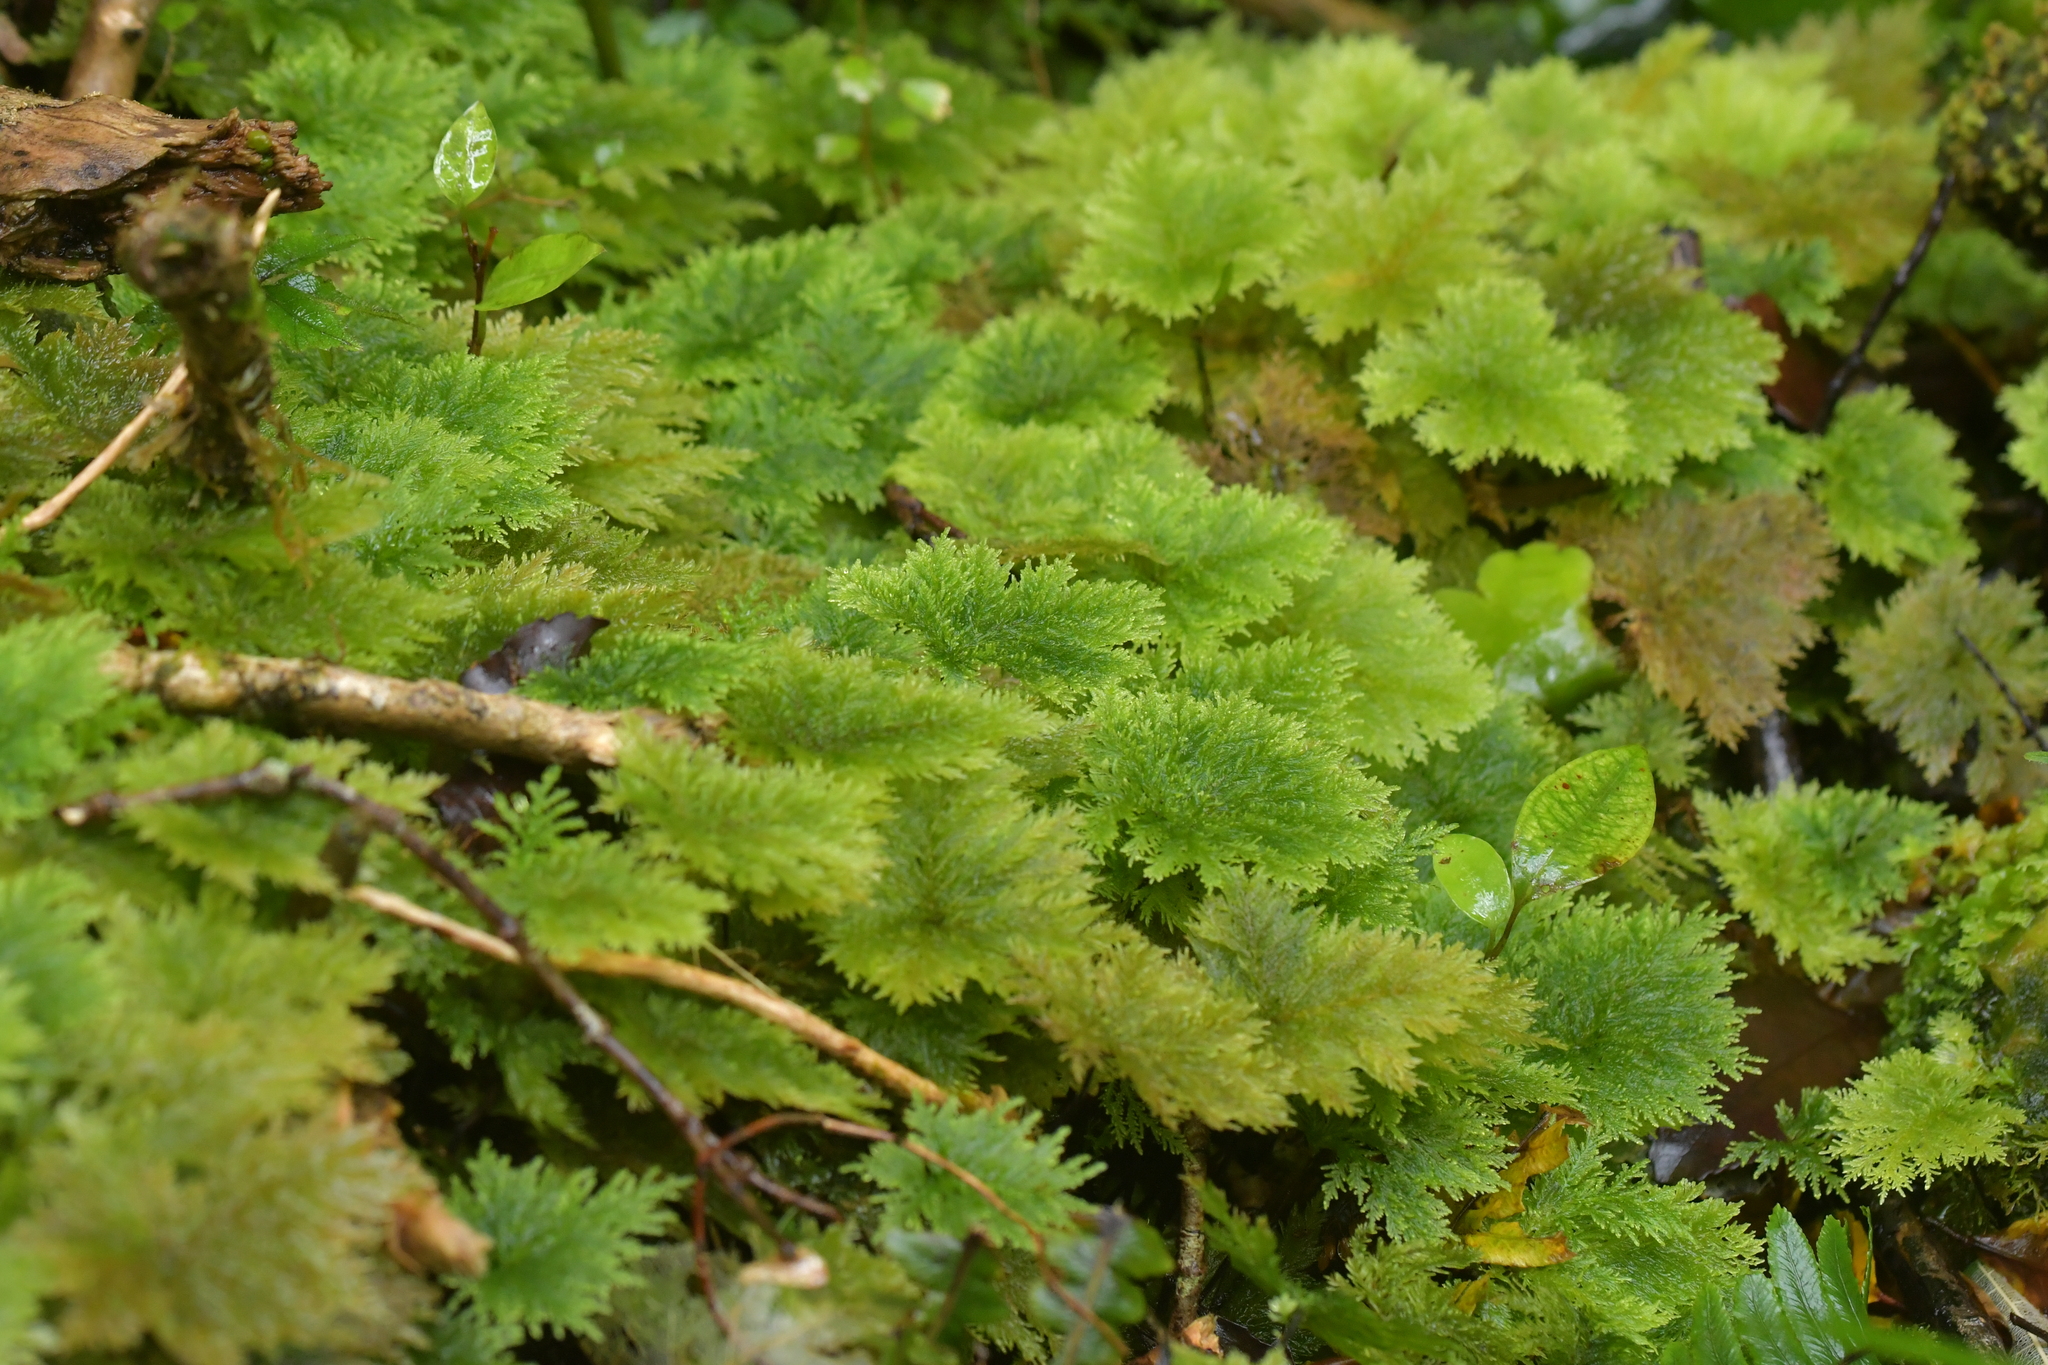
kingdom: Plantae
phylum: Bryophyta
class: Bryopsida
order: Hypopterygiales
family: Hypopterygiaceae
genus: Dendrohypopterygium
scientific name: Dendrohypopterygium filiculiforme
